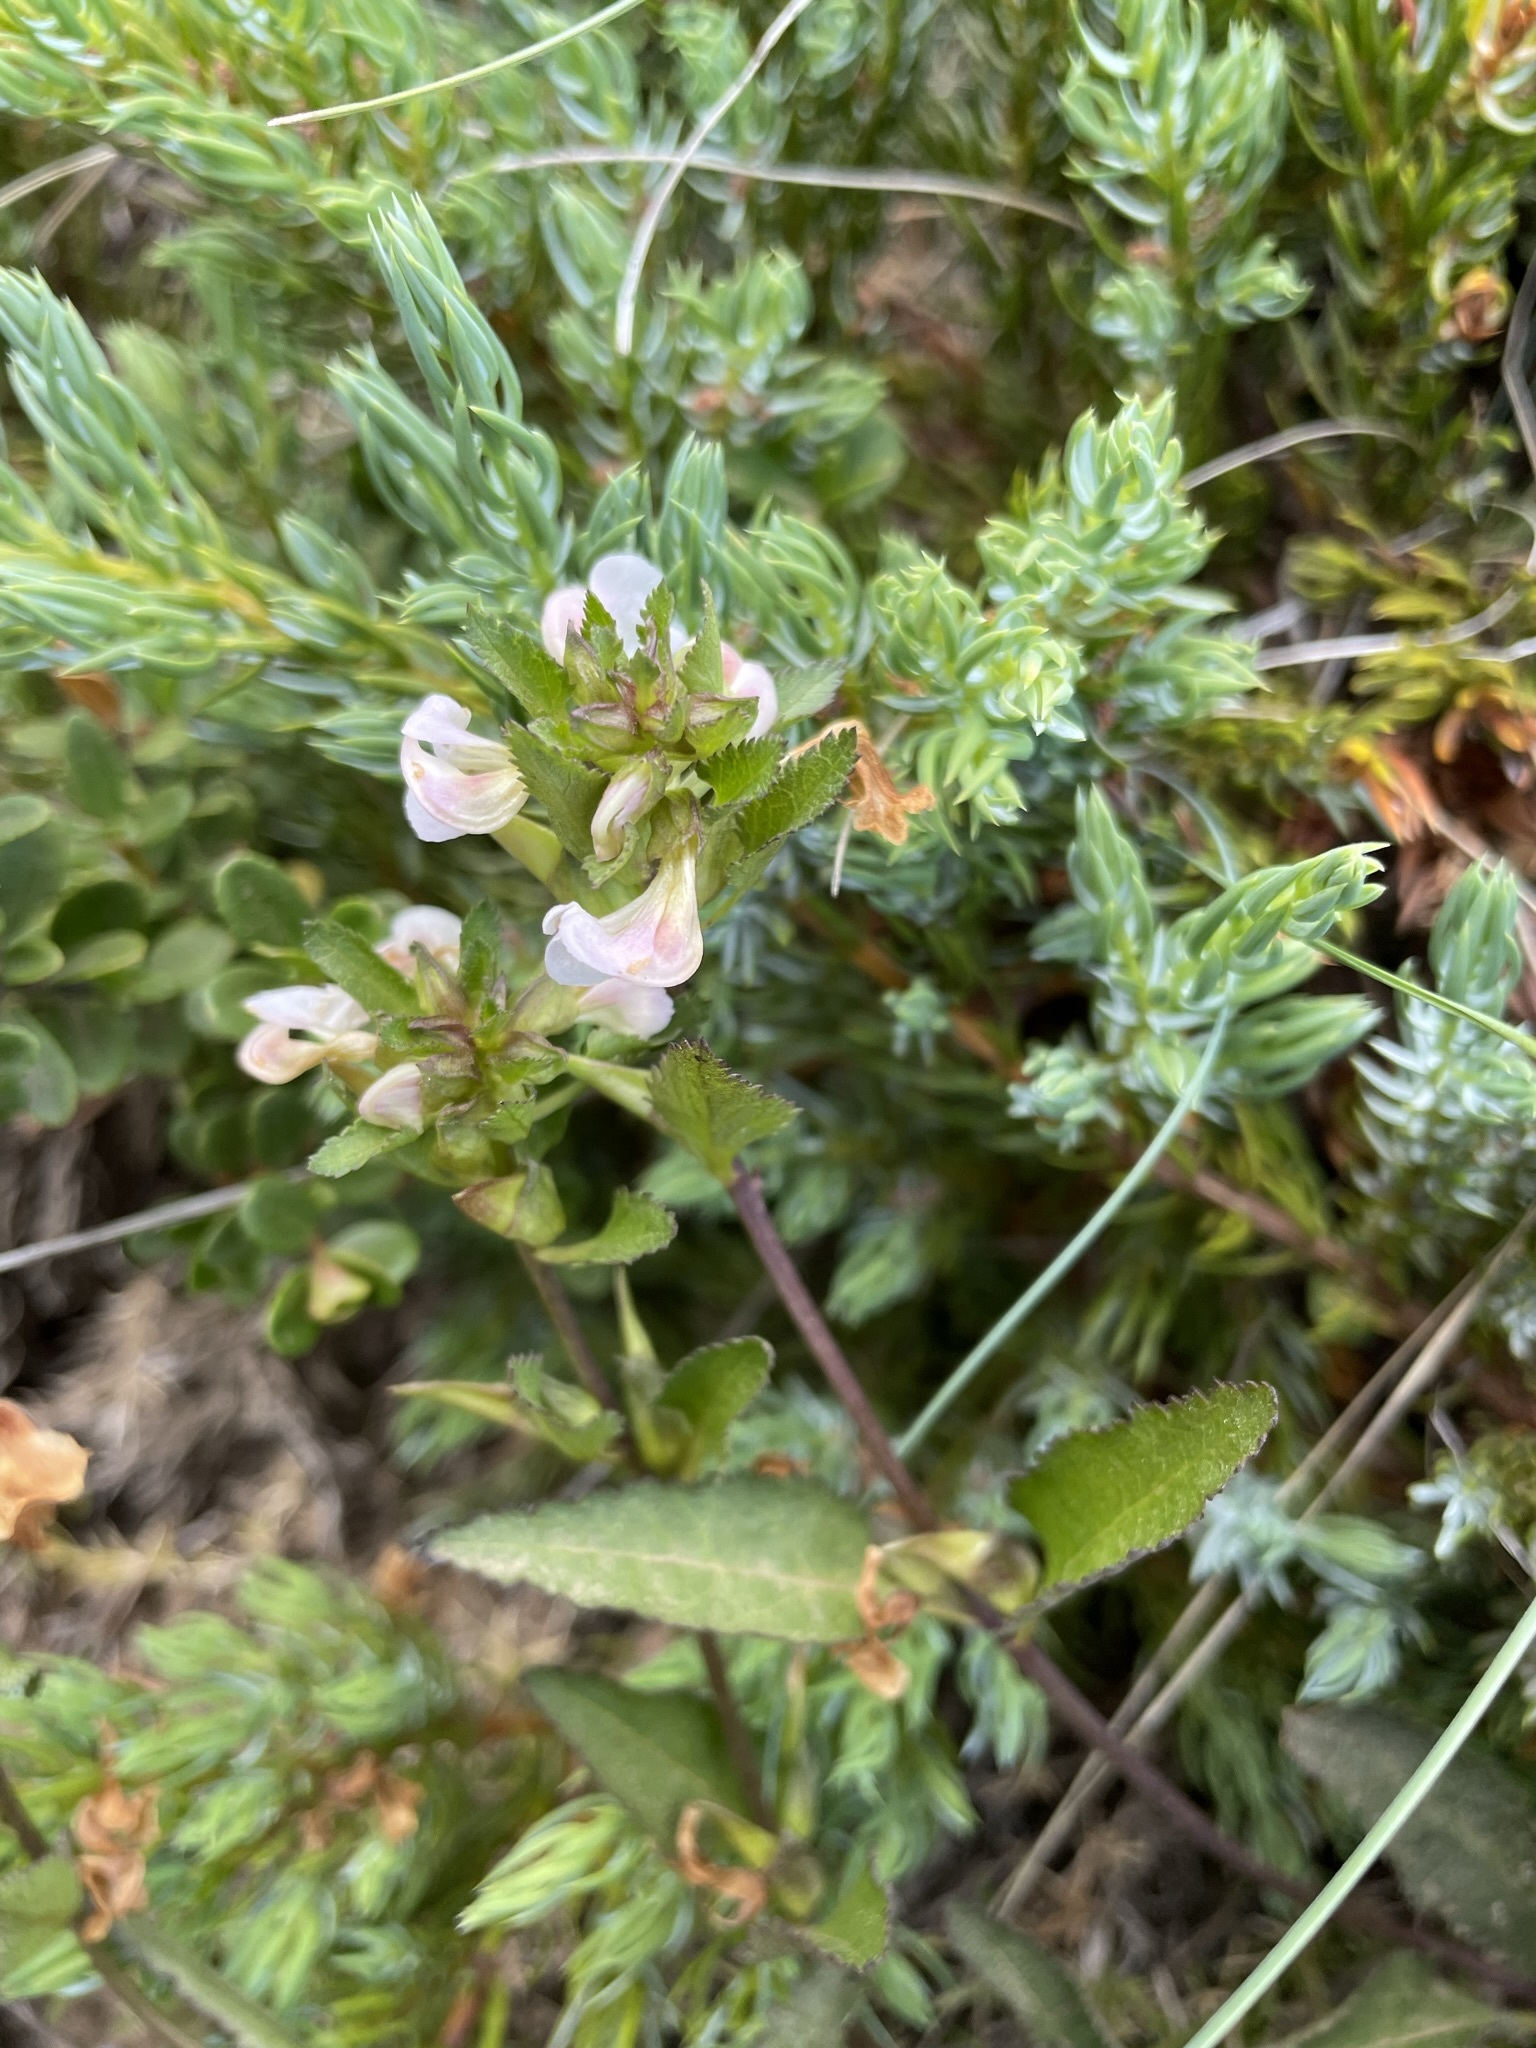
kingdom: Plantae
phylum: Tracheophyta
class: Magnoliopsida
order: Lamiales
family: Orobanchaceae
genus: Pedicularis
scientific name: Pedicularis racemosa
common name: Leafy lousewort
